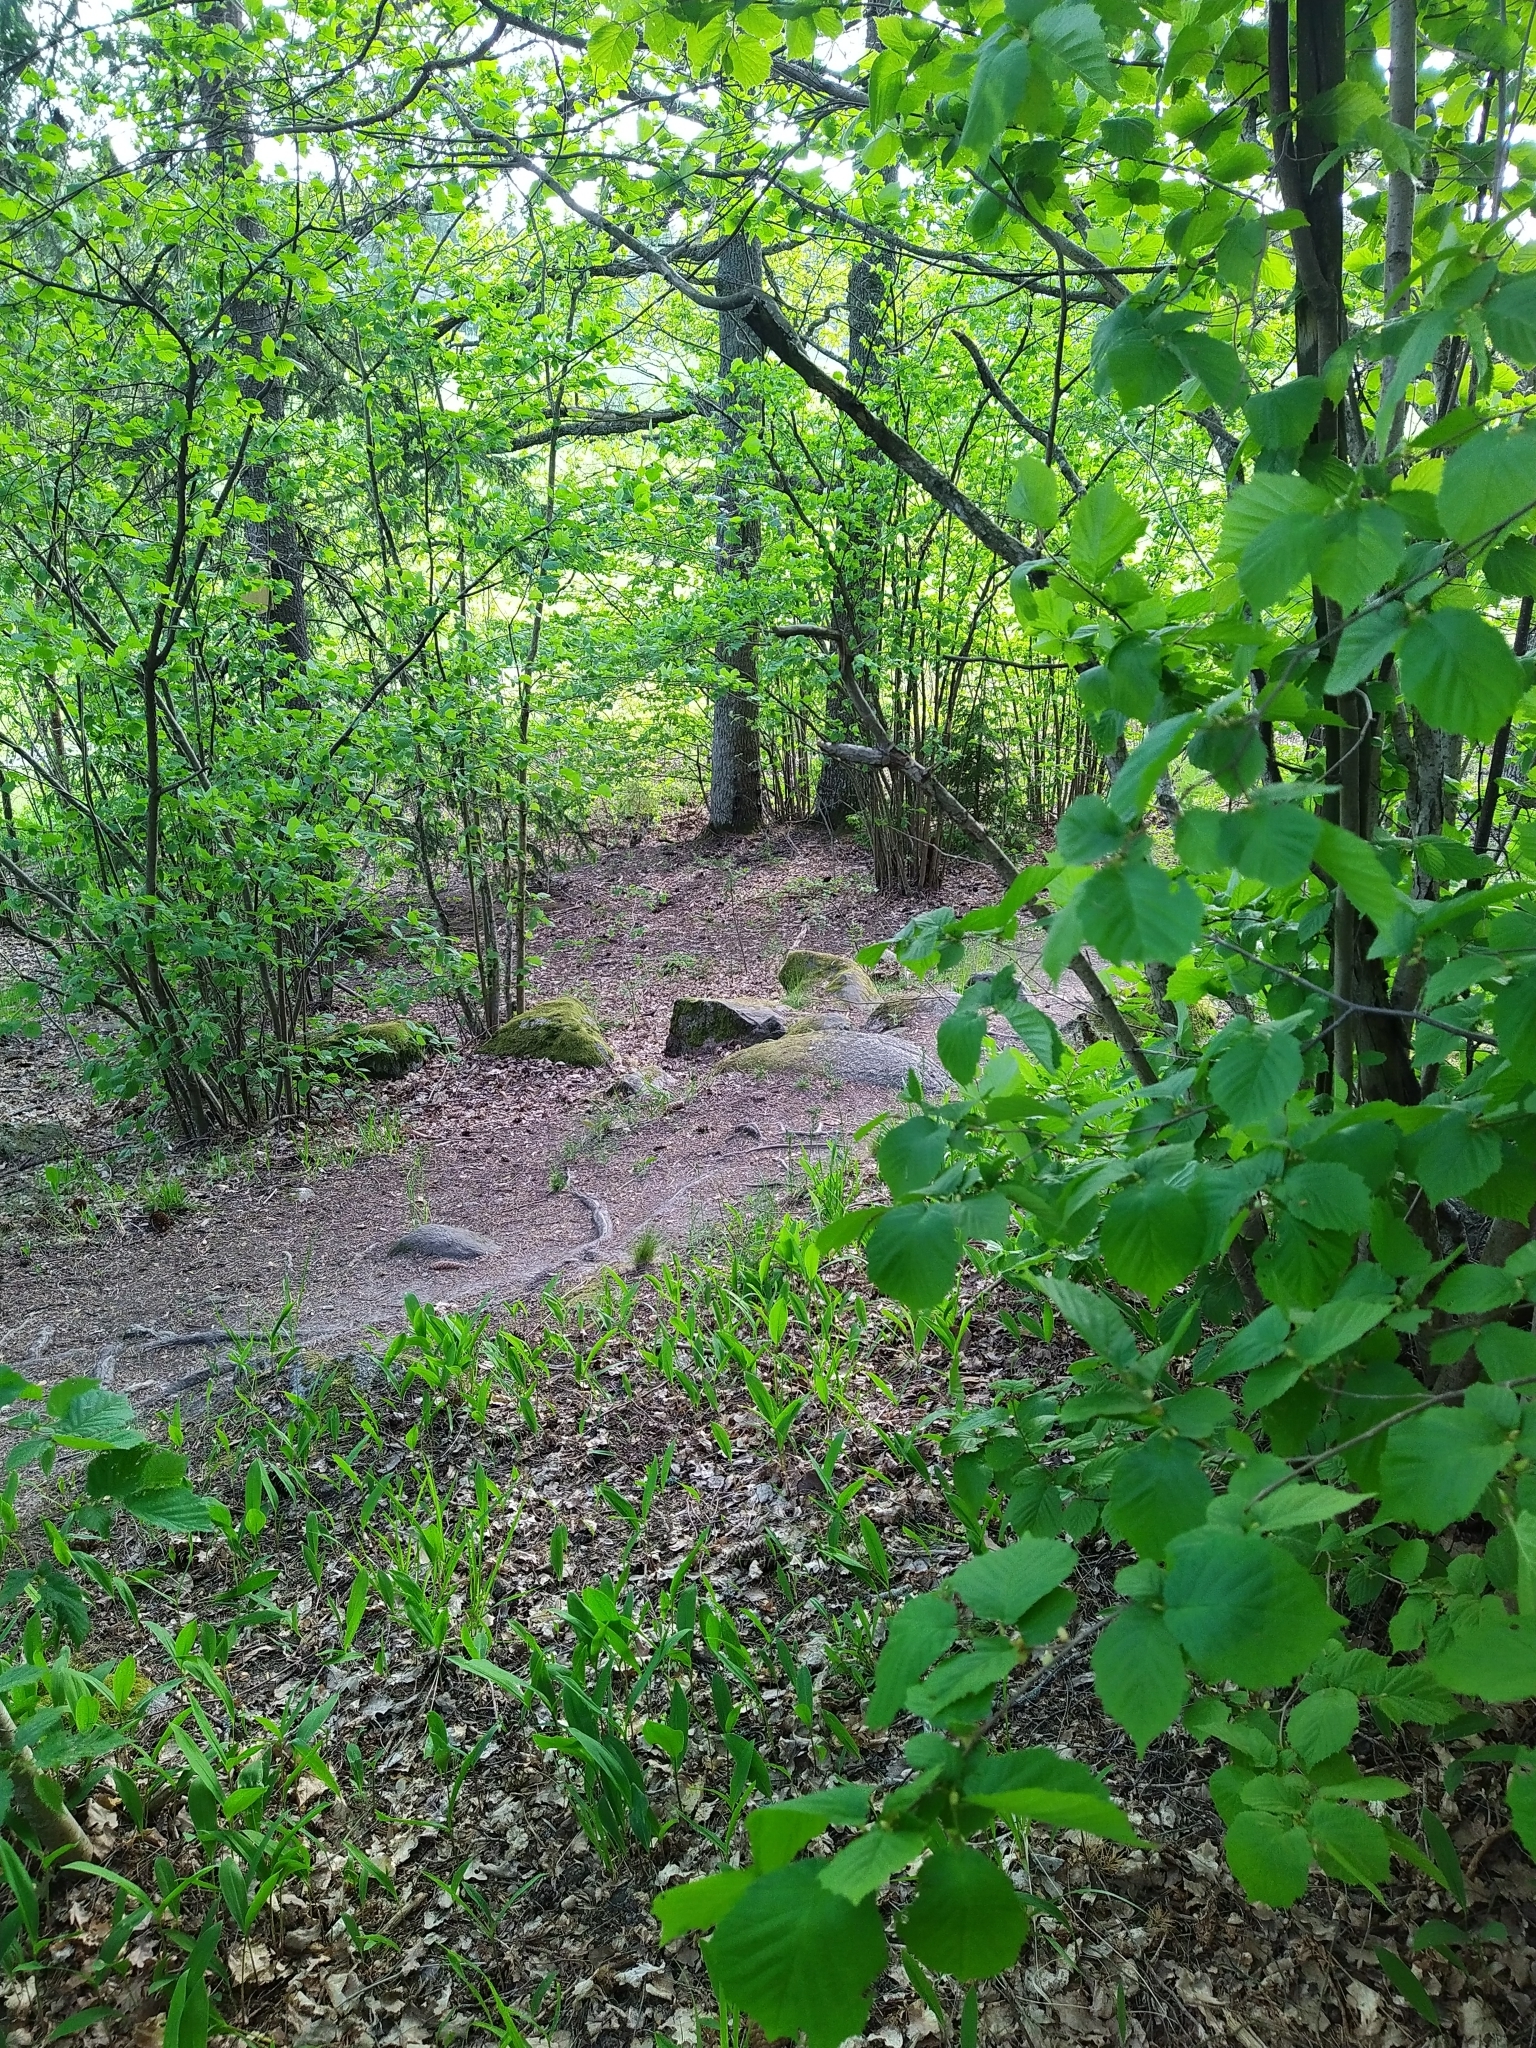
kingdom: Plantae
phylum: Tracheophyta
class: Magnoliopsida
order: Fagales
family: Betulaceae
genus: Corylus
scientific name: Corylus avellana
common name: European hazel
